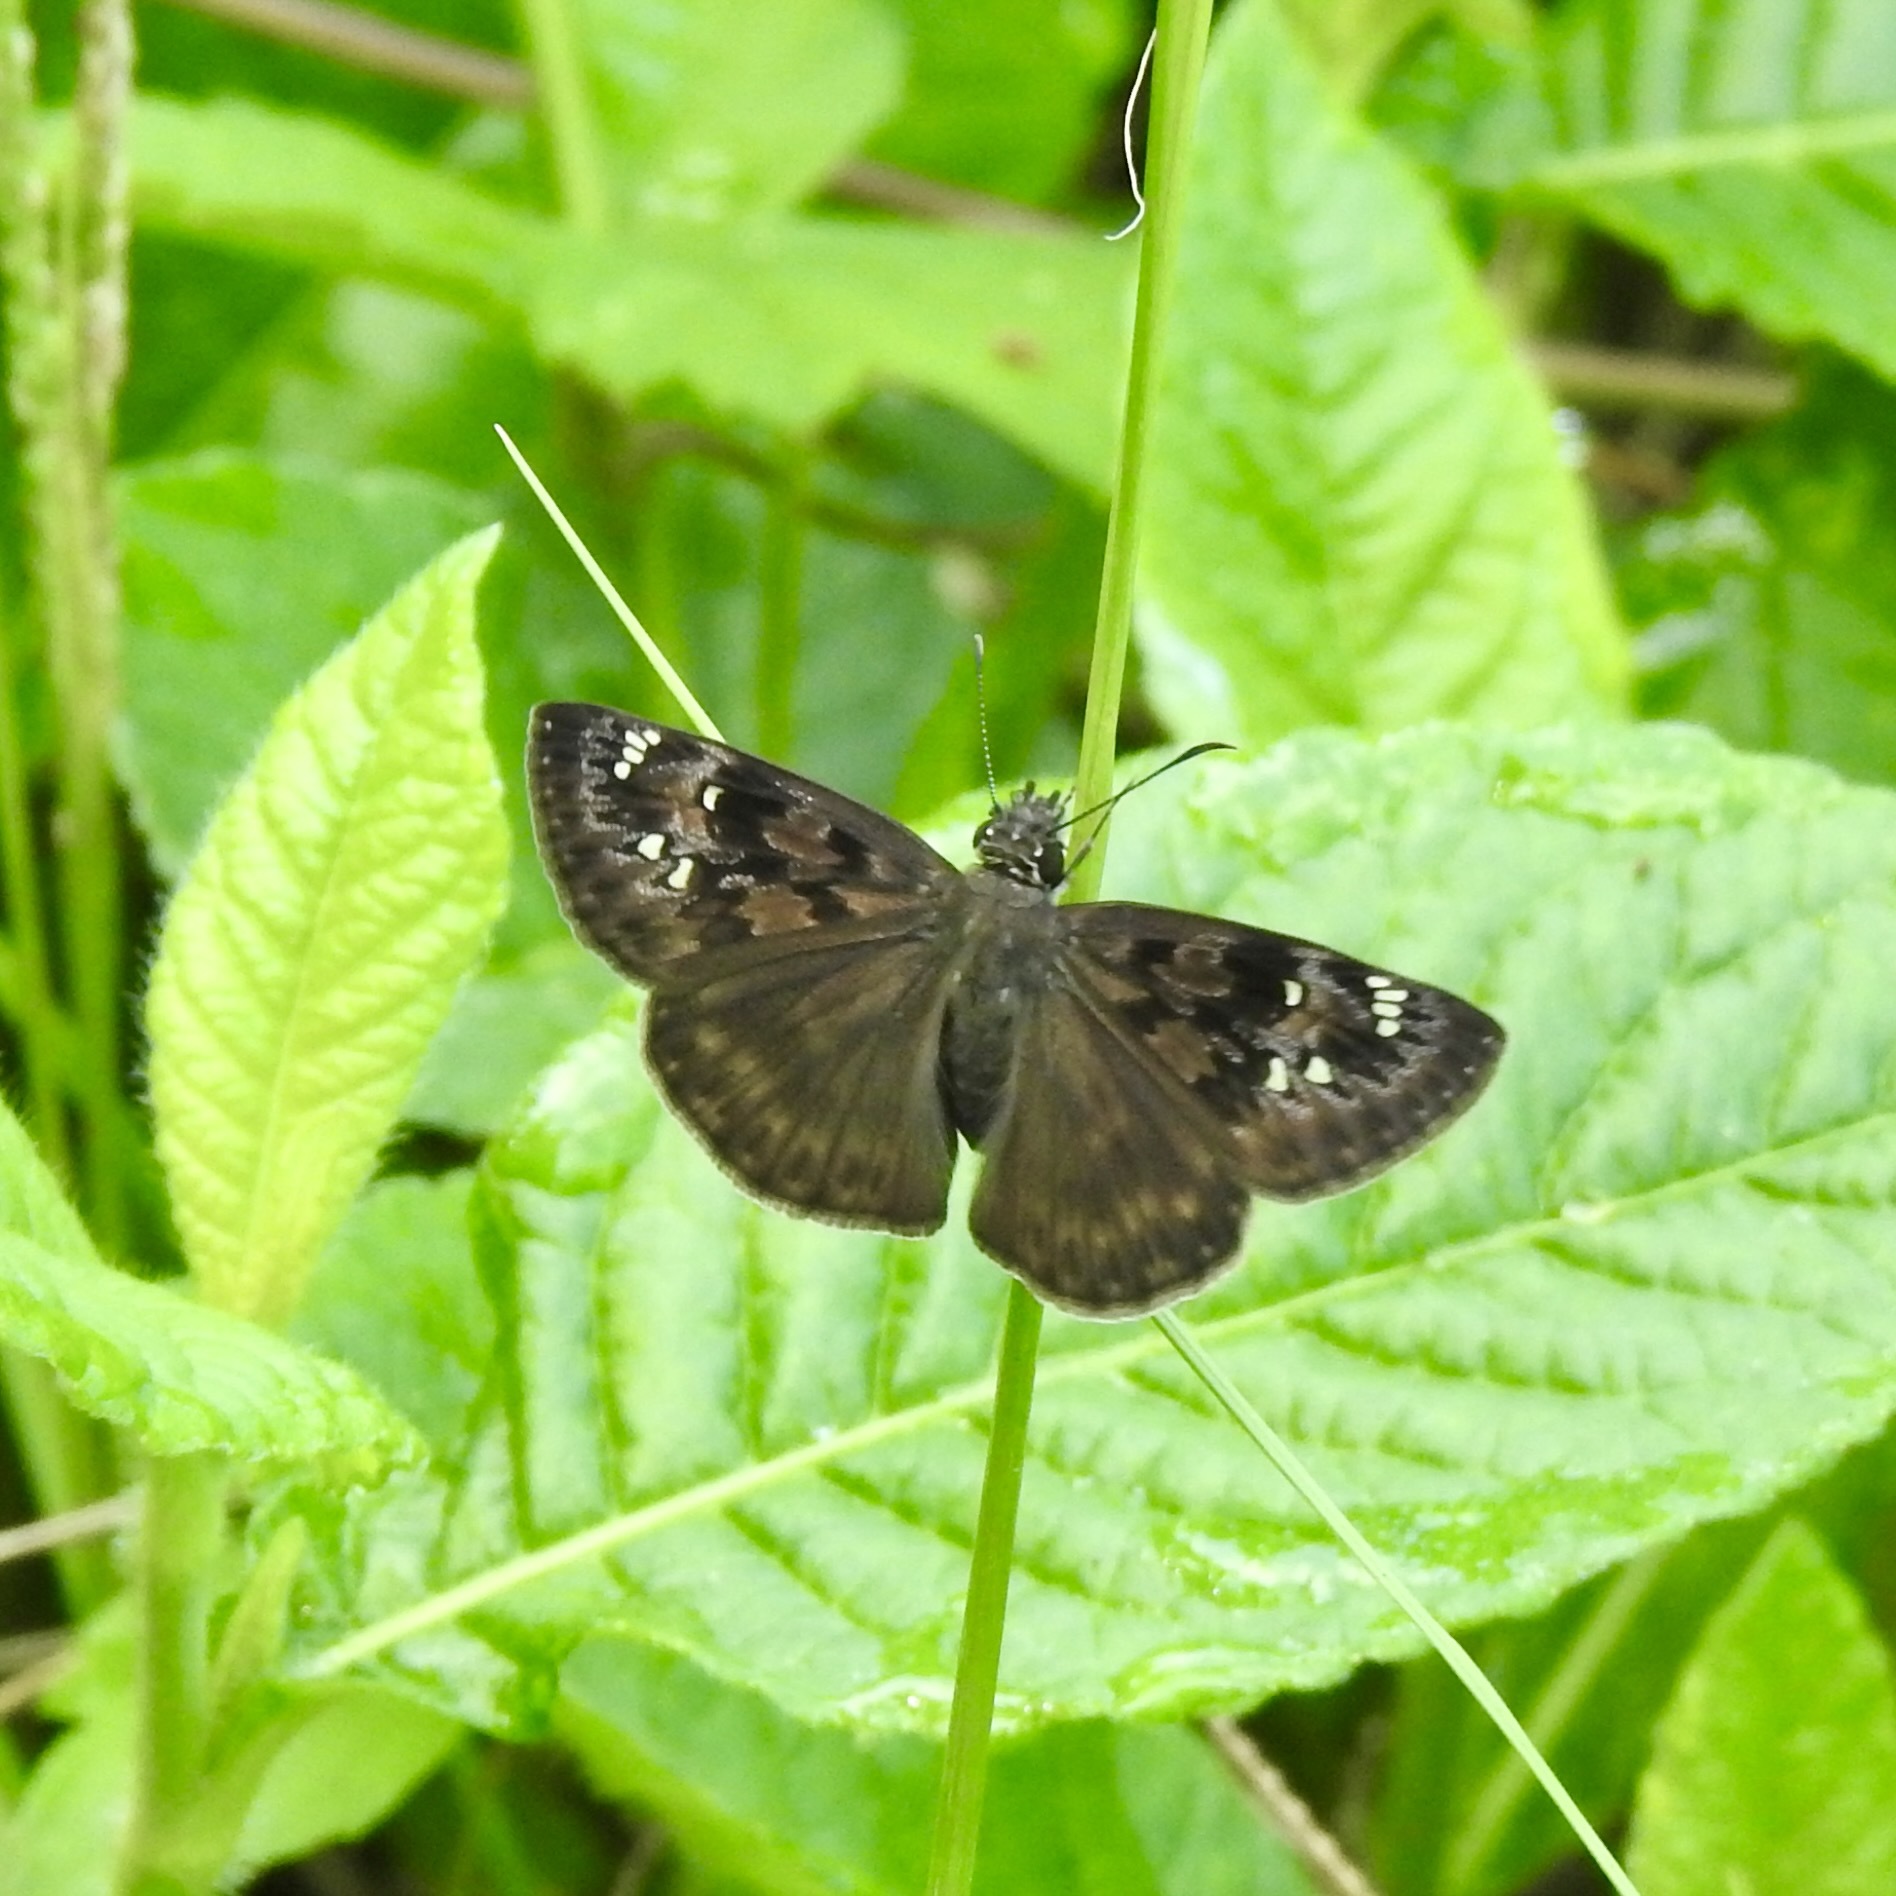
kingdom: Animalia
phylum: Arthropoda
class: Insecta
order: Lepidoptera
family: Hesperiidae
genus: Erynnis
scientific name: Erynnis horatius
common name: Horace's duskywing
